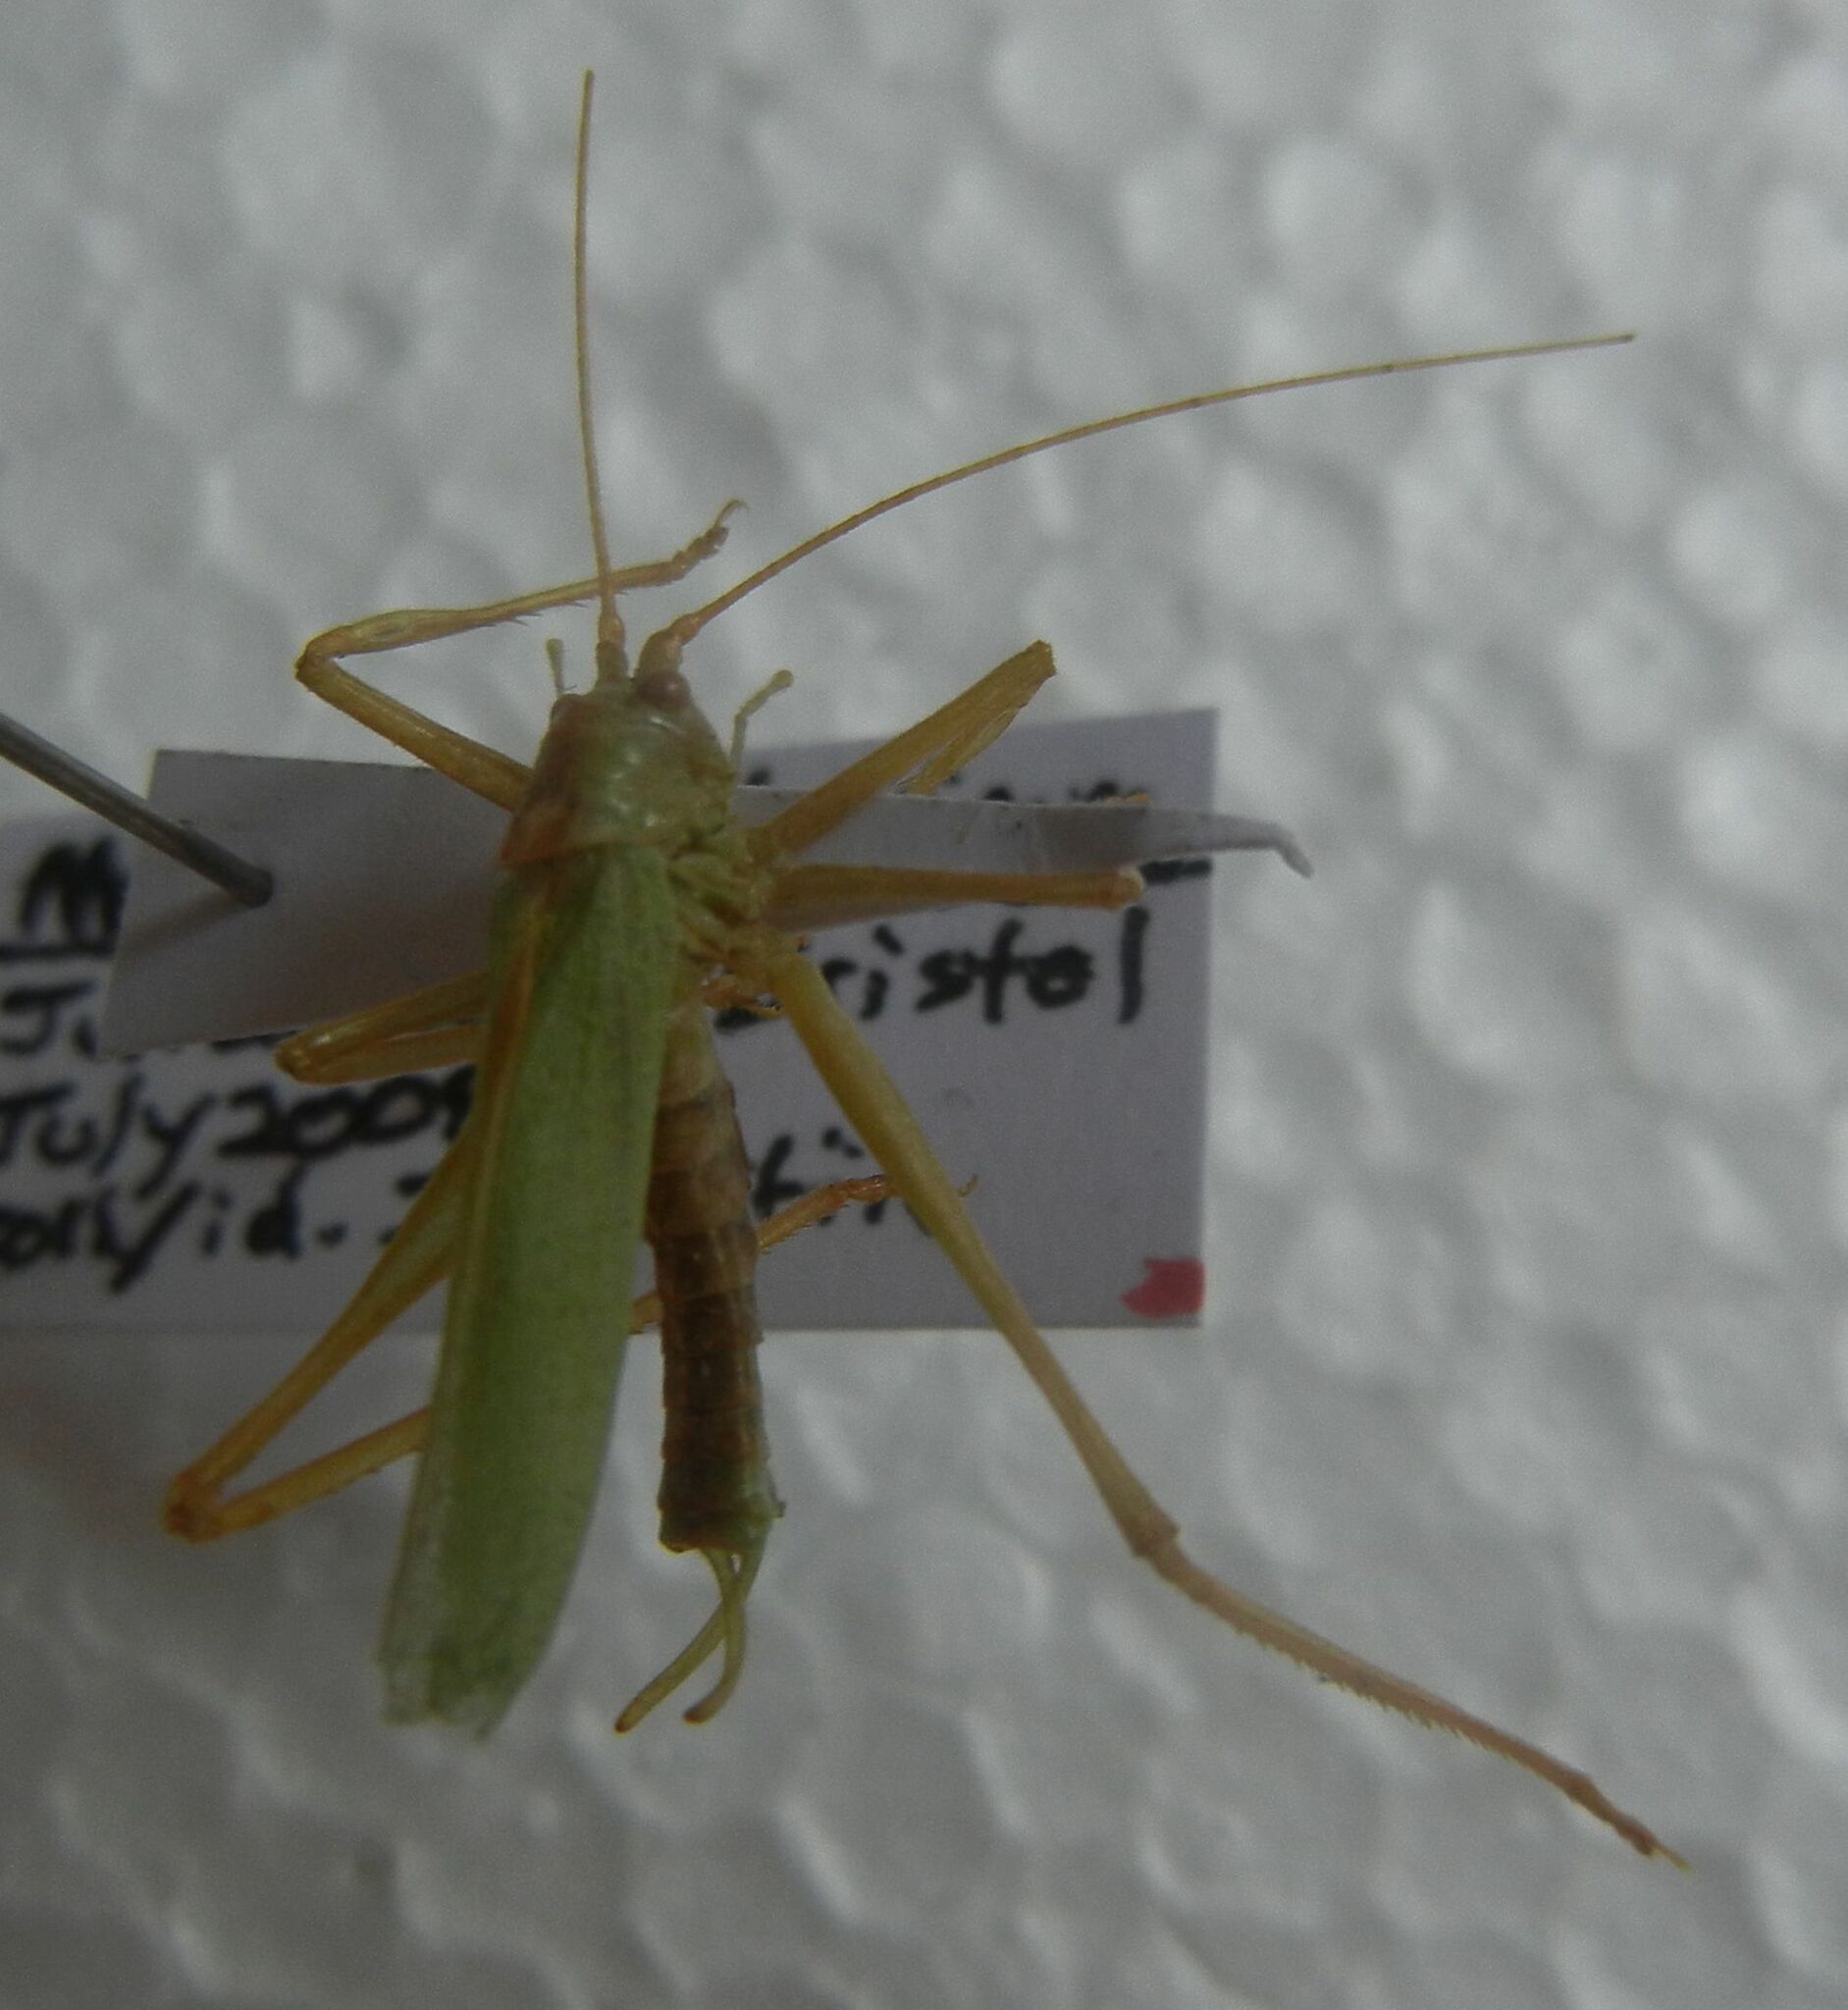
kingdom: Animalia
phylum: Arthropoda
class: Insecta
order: Orthoptera
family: Tettigoniidae
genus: Meconema
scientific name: Meconema thalassinum
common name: Oak bush-cricket
